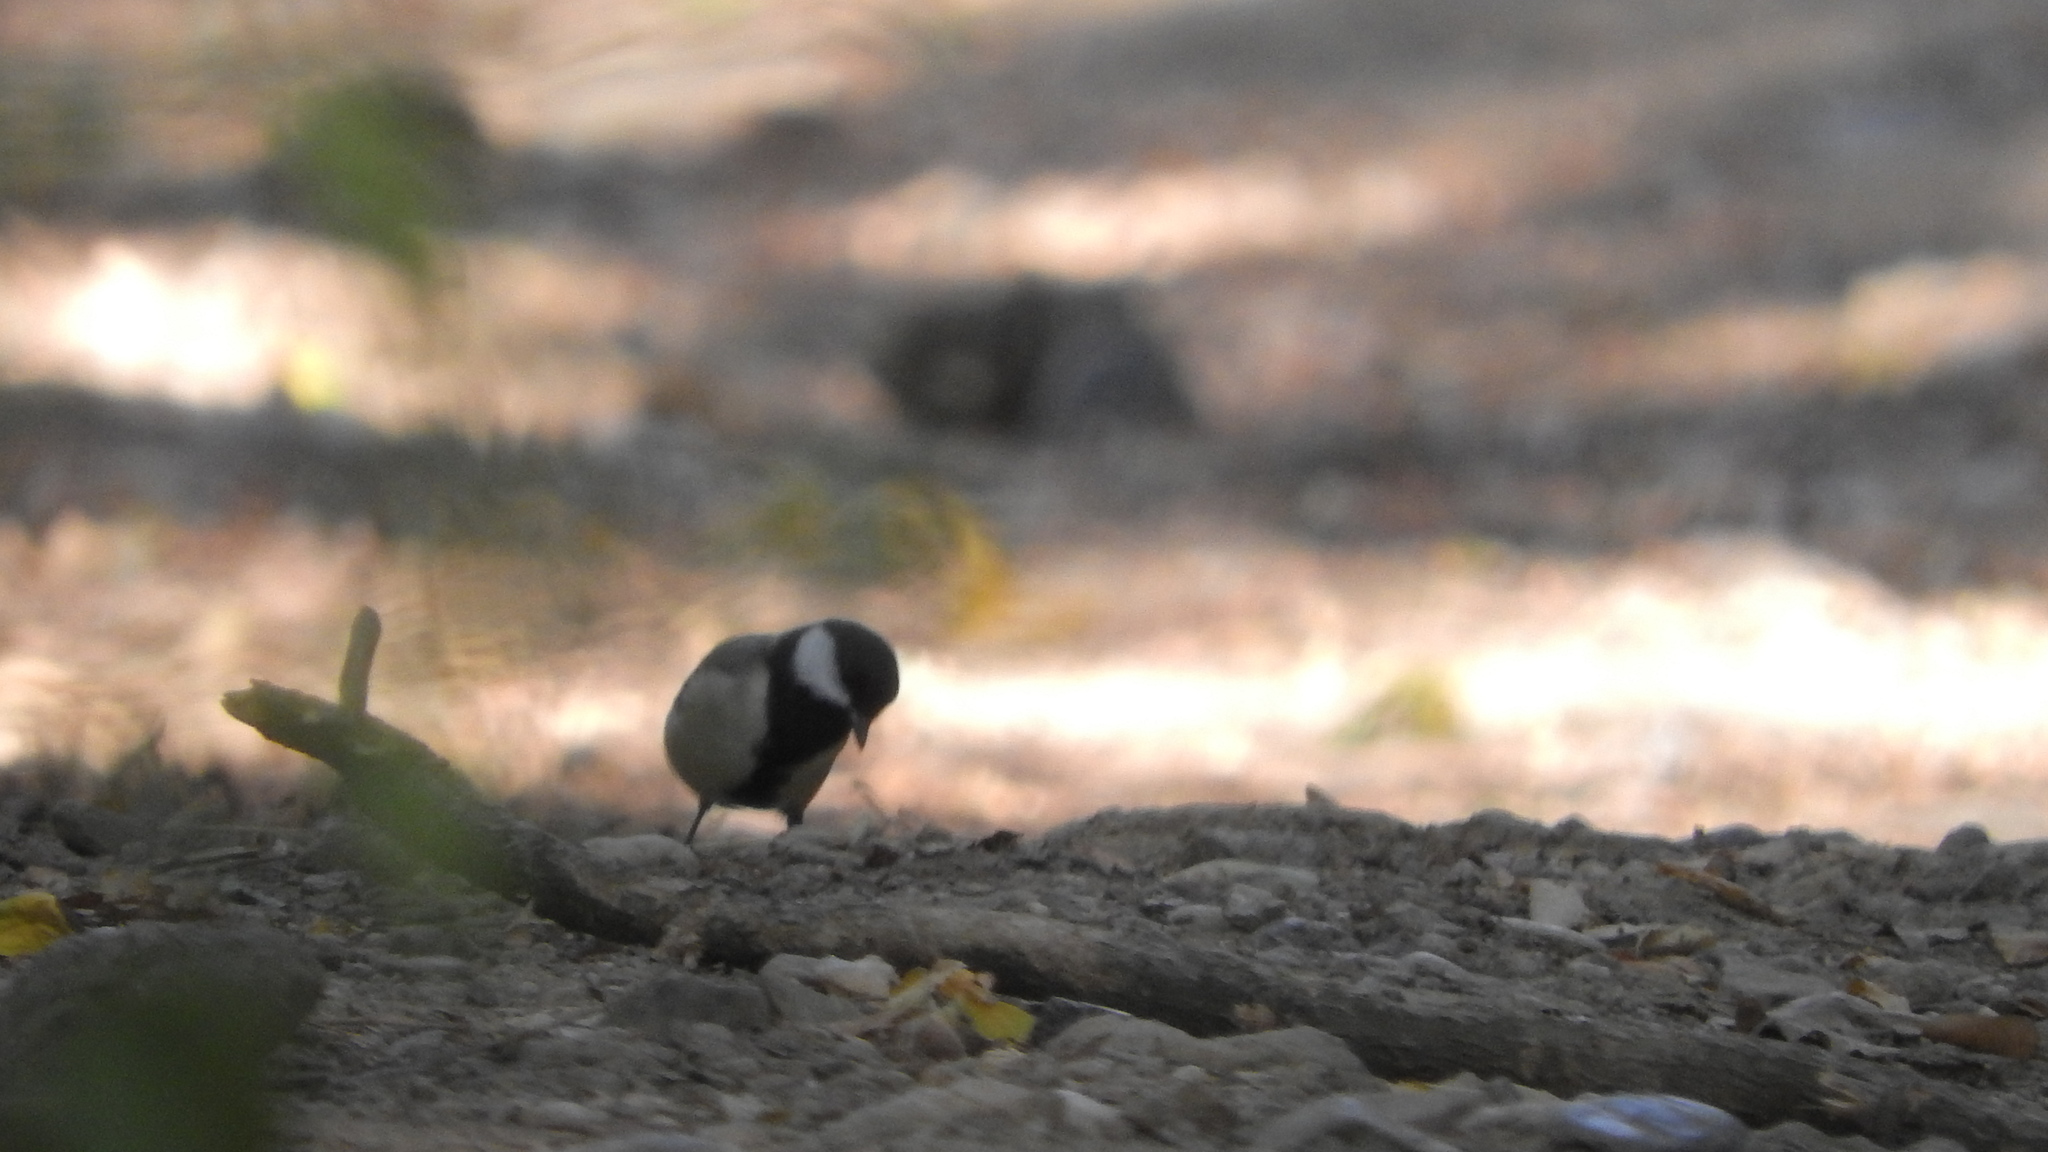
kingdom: Animalia
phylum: Chordata
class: Aves
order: Passeriformes
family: Paridae
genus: Parus
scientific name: Parus major
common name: Great tit
